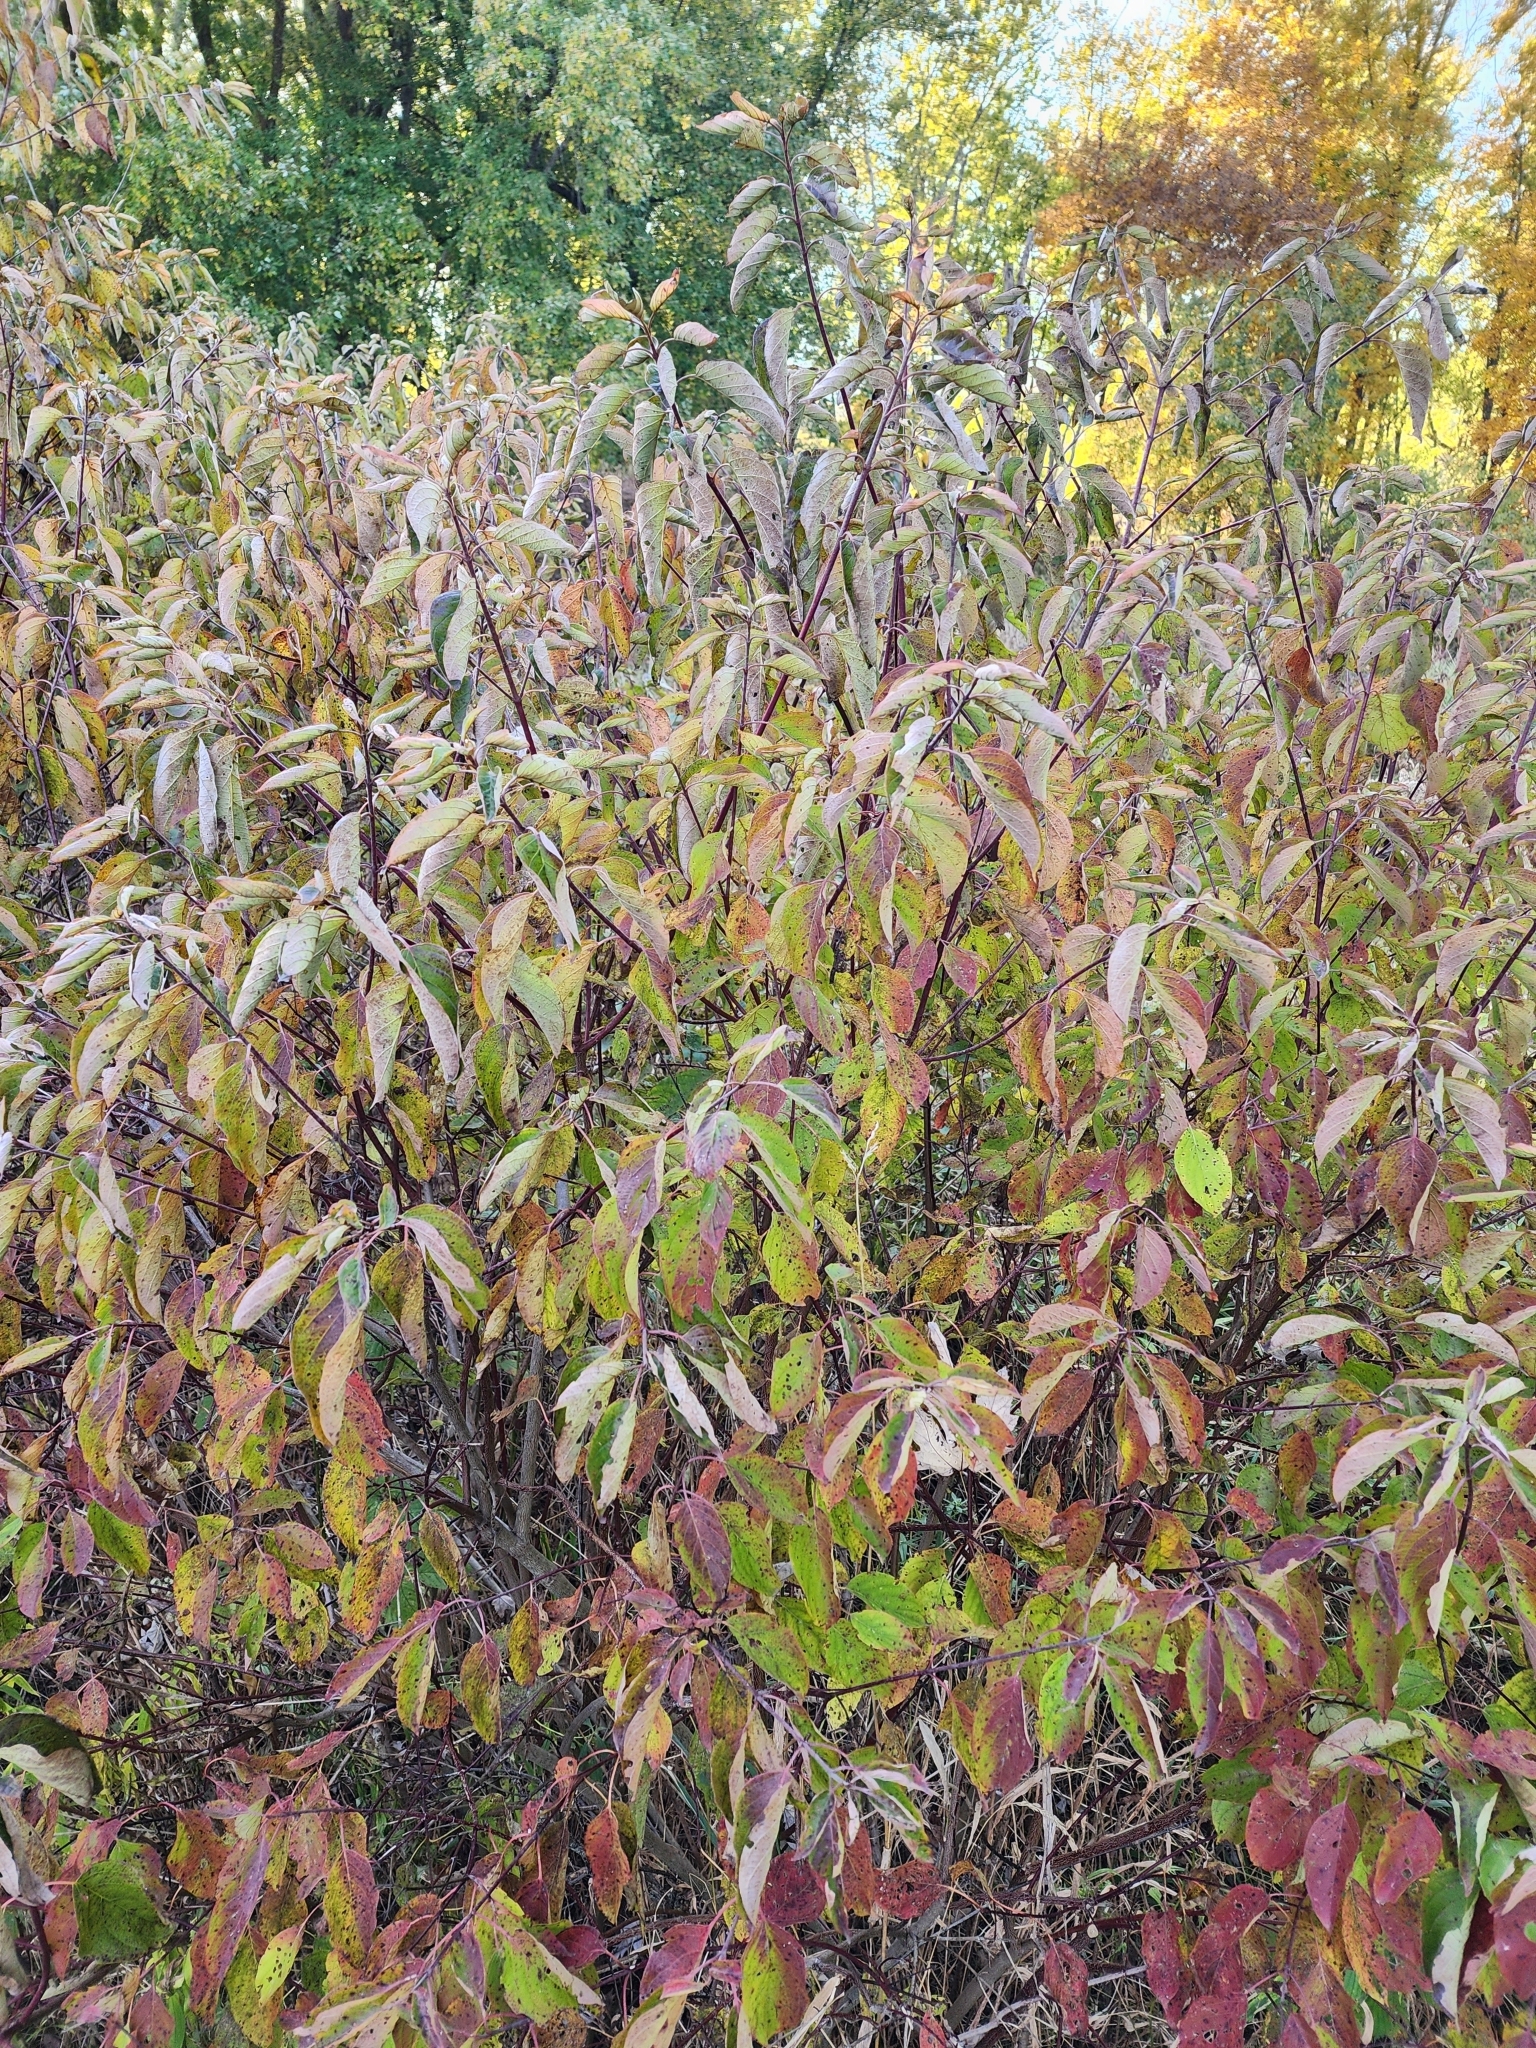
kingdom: Plantae
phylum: Tracheophyta
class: Magnoliopsida
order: Cornales
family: Cornaceae
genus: Cornus
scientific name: Cornus amomum
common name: Silky dogwood
